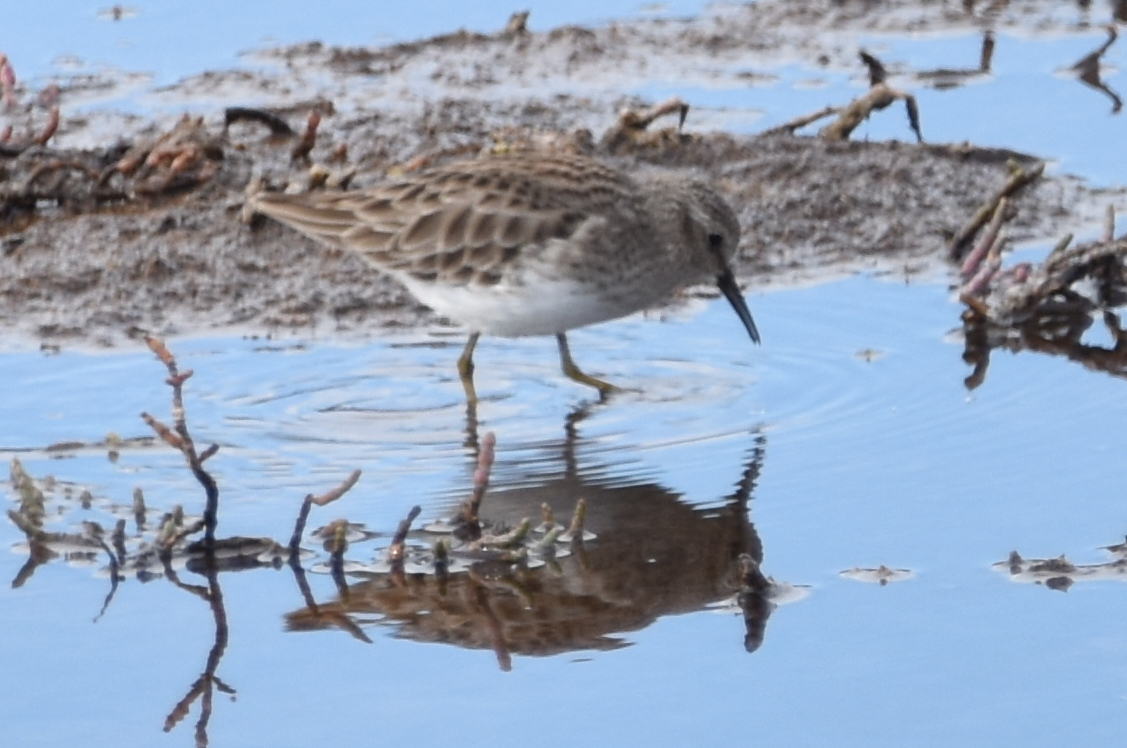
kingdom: Animalia
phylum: Chordata
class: Aves
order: Charadriiformes
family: Scolopacidae
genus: Calidris
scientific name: Calidris minutilla
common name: Least sandpiper
